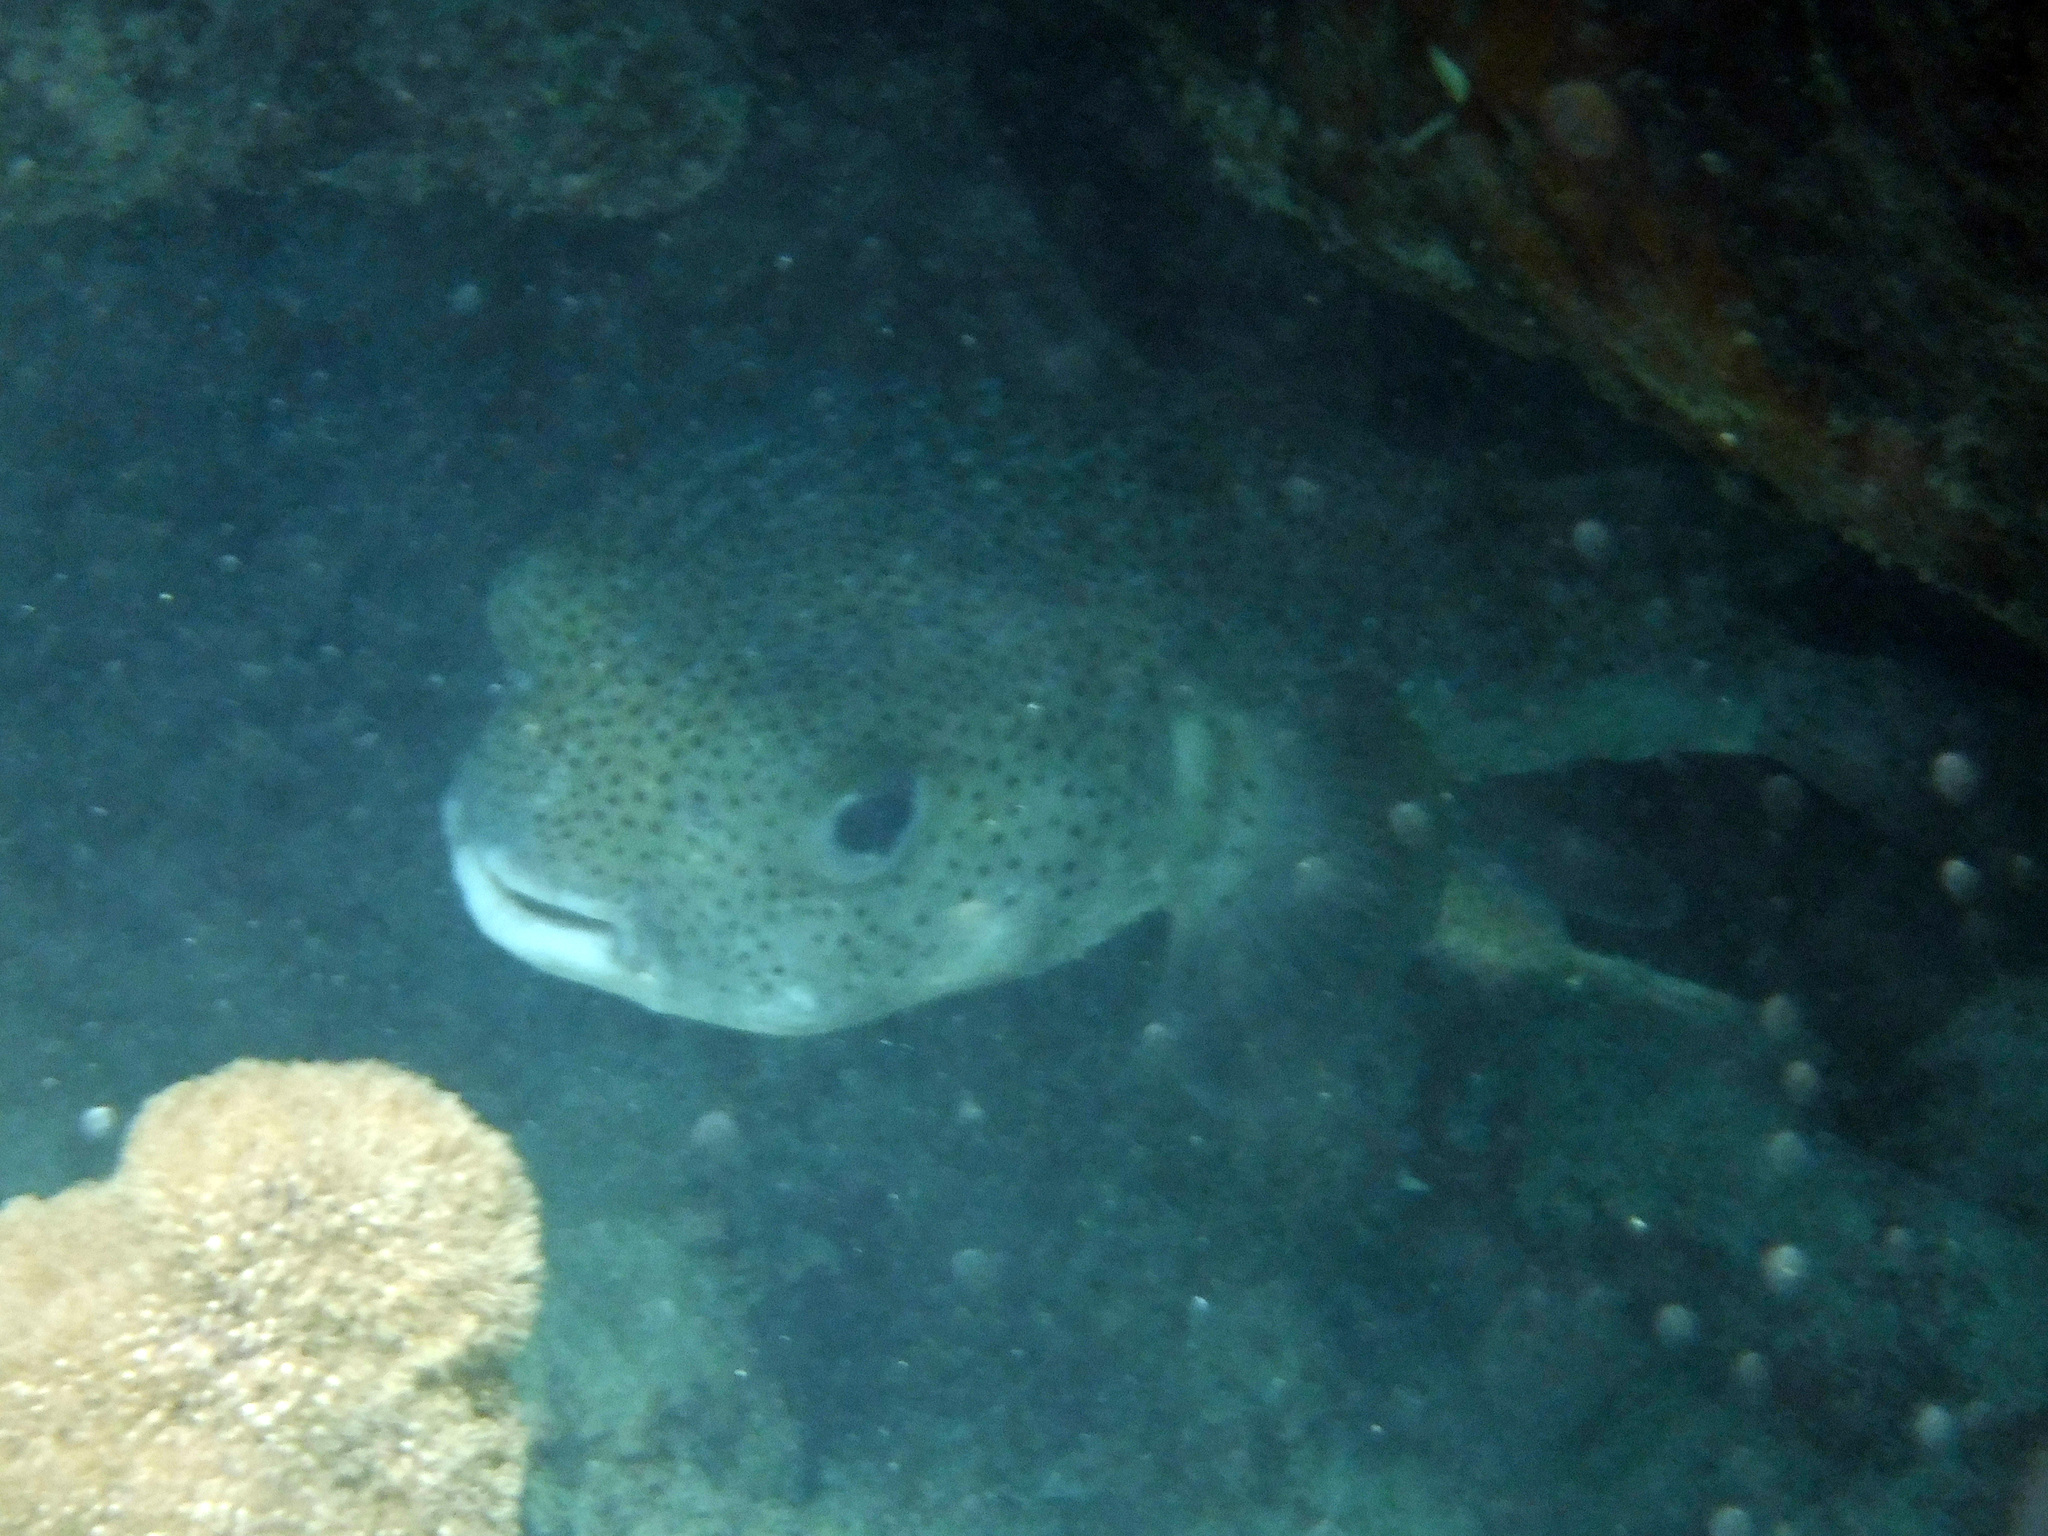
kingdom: Animalia
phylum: Chordata
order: Tetraodontiformes
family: Diodontidae
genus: Diodon
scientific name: Diodon hystrix
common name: Giant porcupinefish
